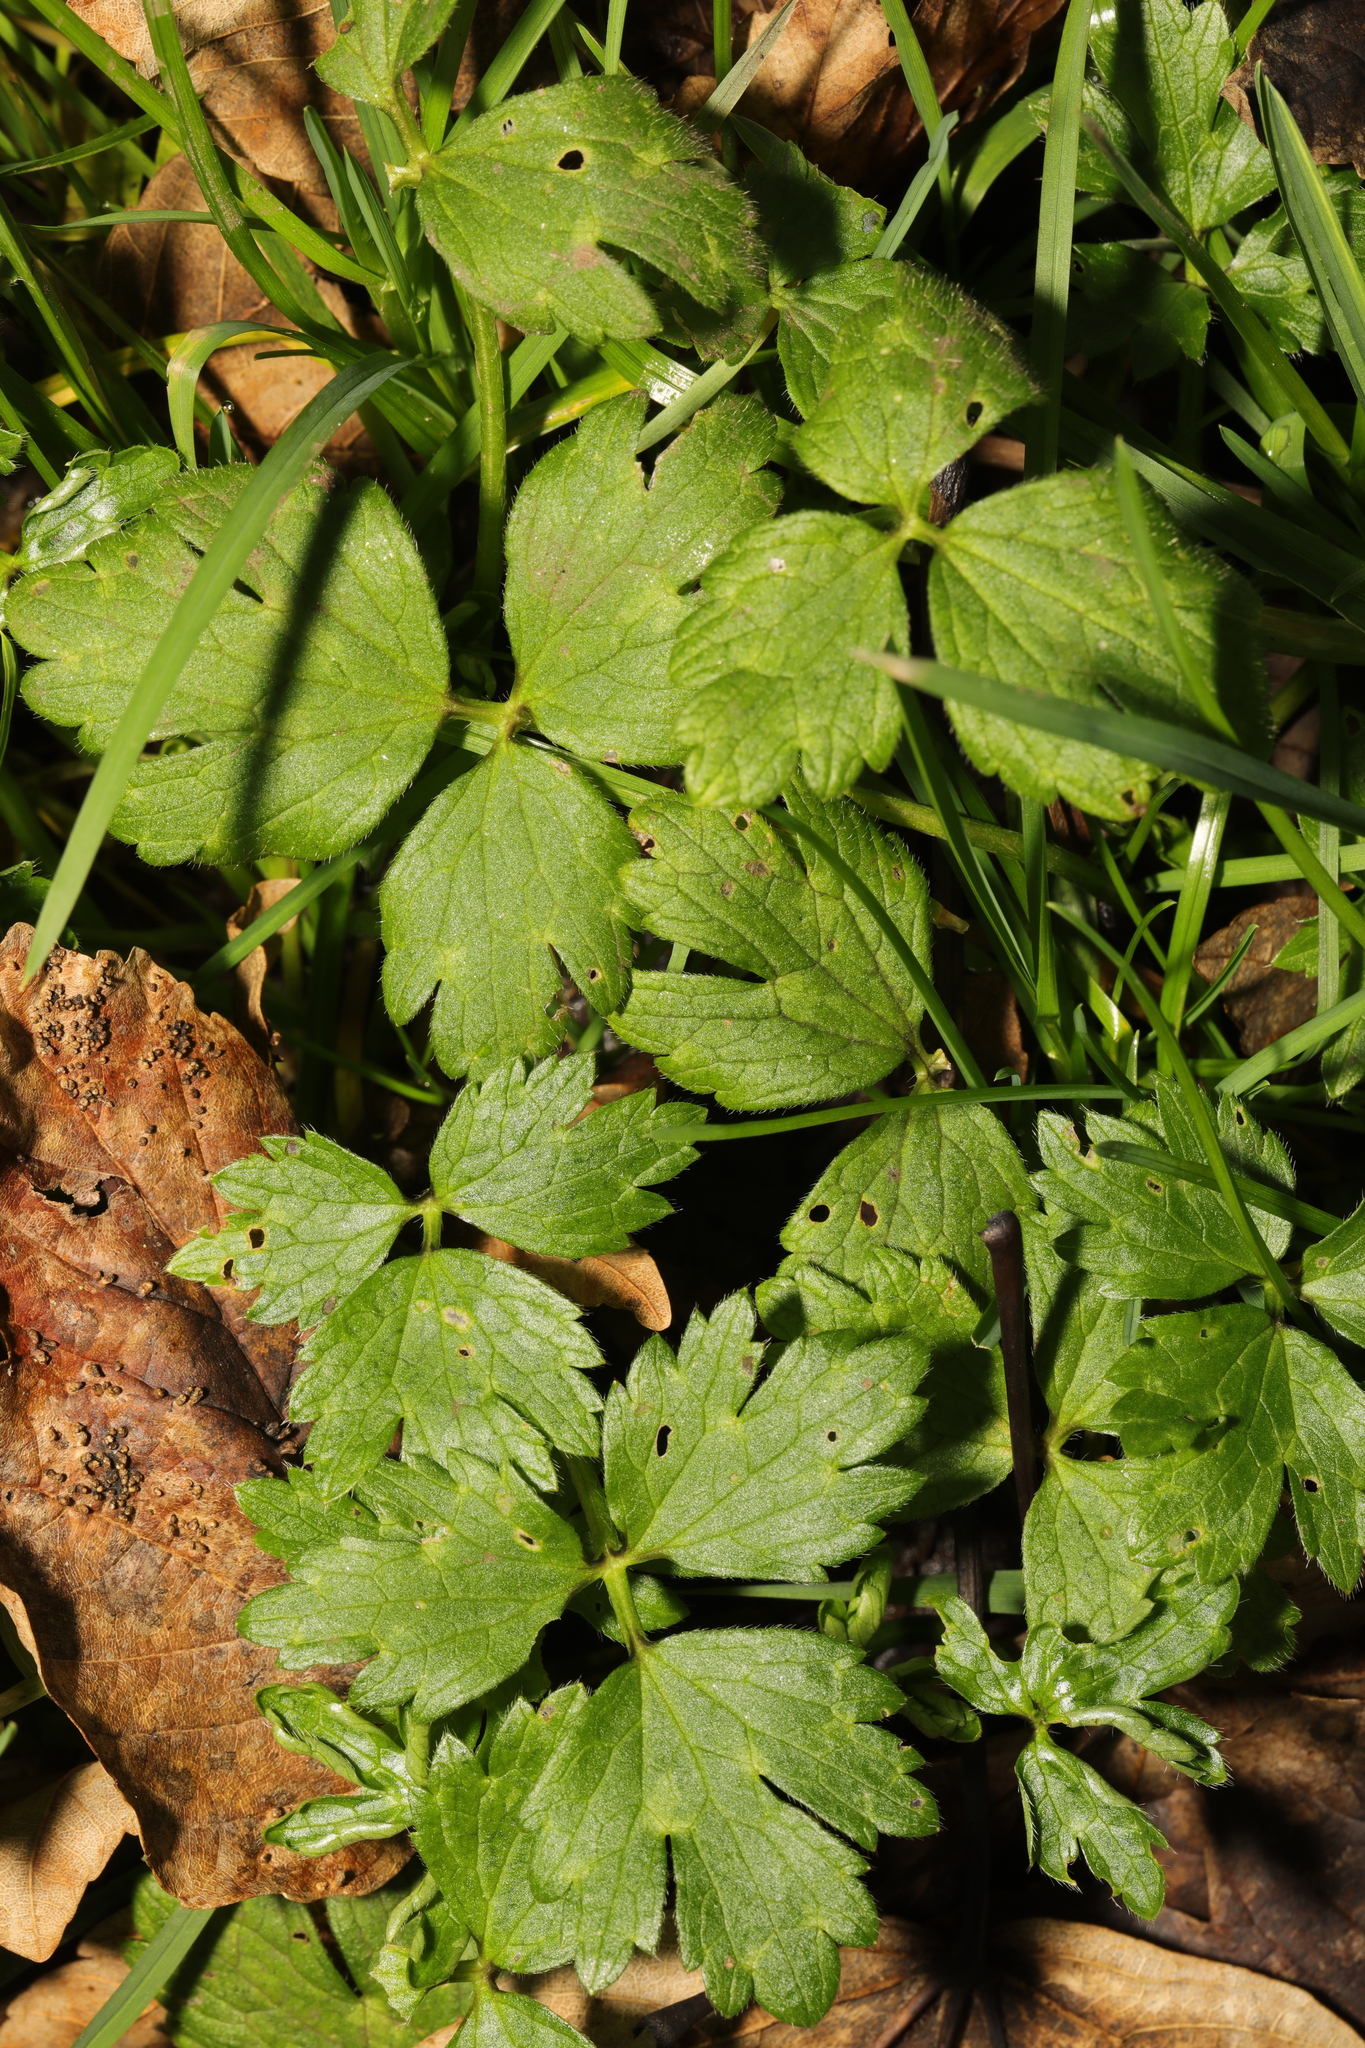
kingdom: Plantae
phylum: Tracheophyta
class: Magnoliopsida
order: Ranunculales
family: Ranunculaceae
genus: Ranunculus
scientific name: Ranunculus repens
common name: Creeping buttercup
